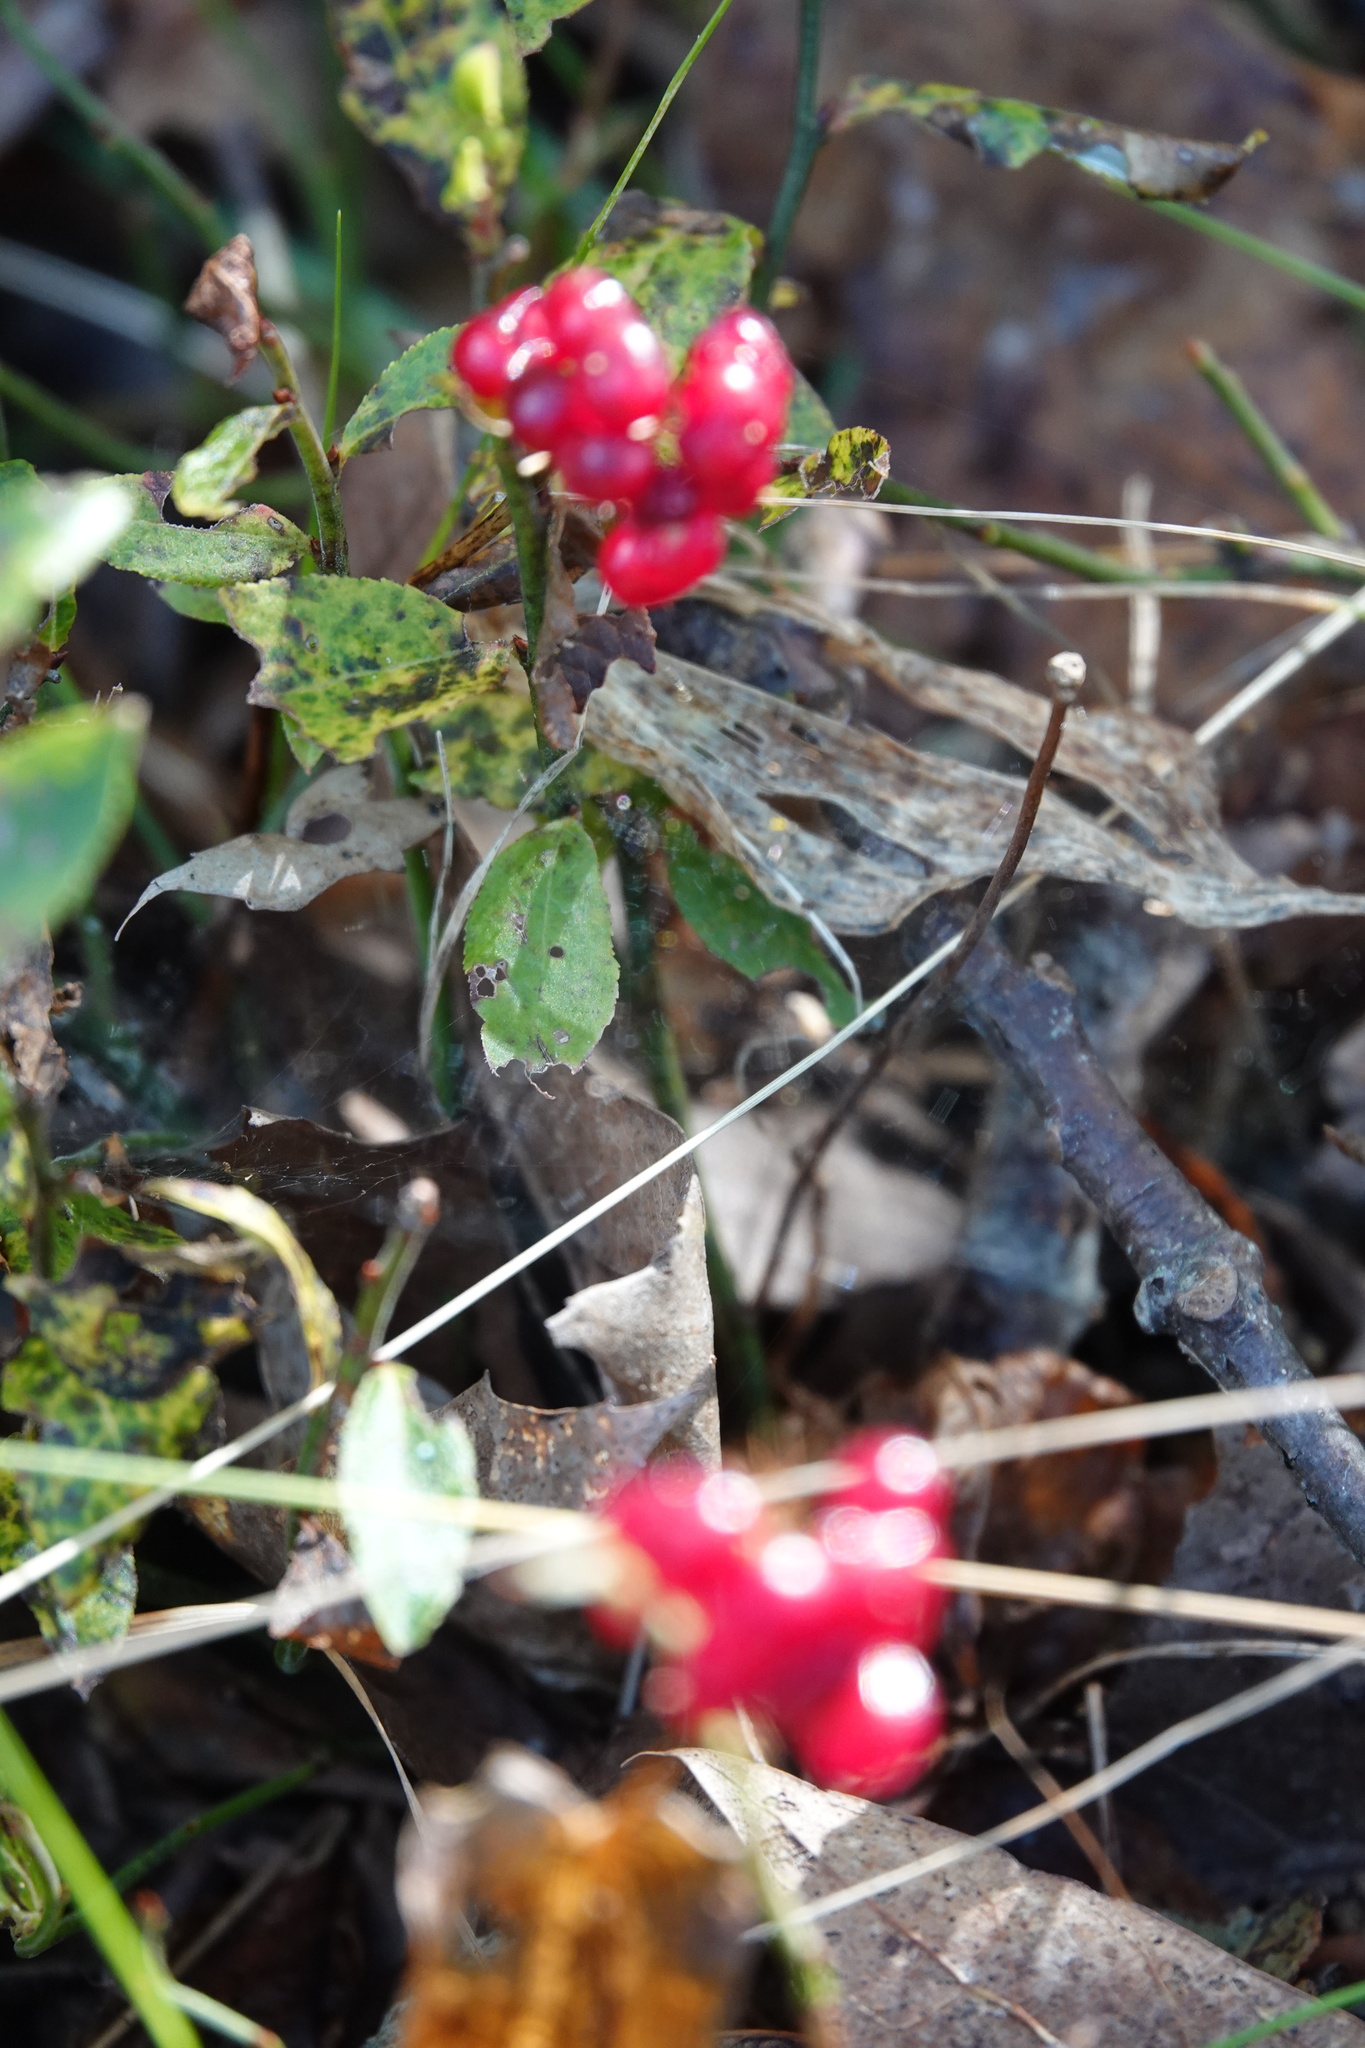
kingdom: Plantae
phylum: Tracheophyta
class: Liliopsida
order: Asparagales
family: Asparagaceae
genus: Maianthemum
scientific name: Maianthemum canadense
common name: False lily-of-the-valley
